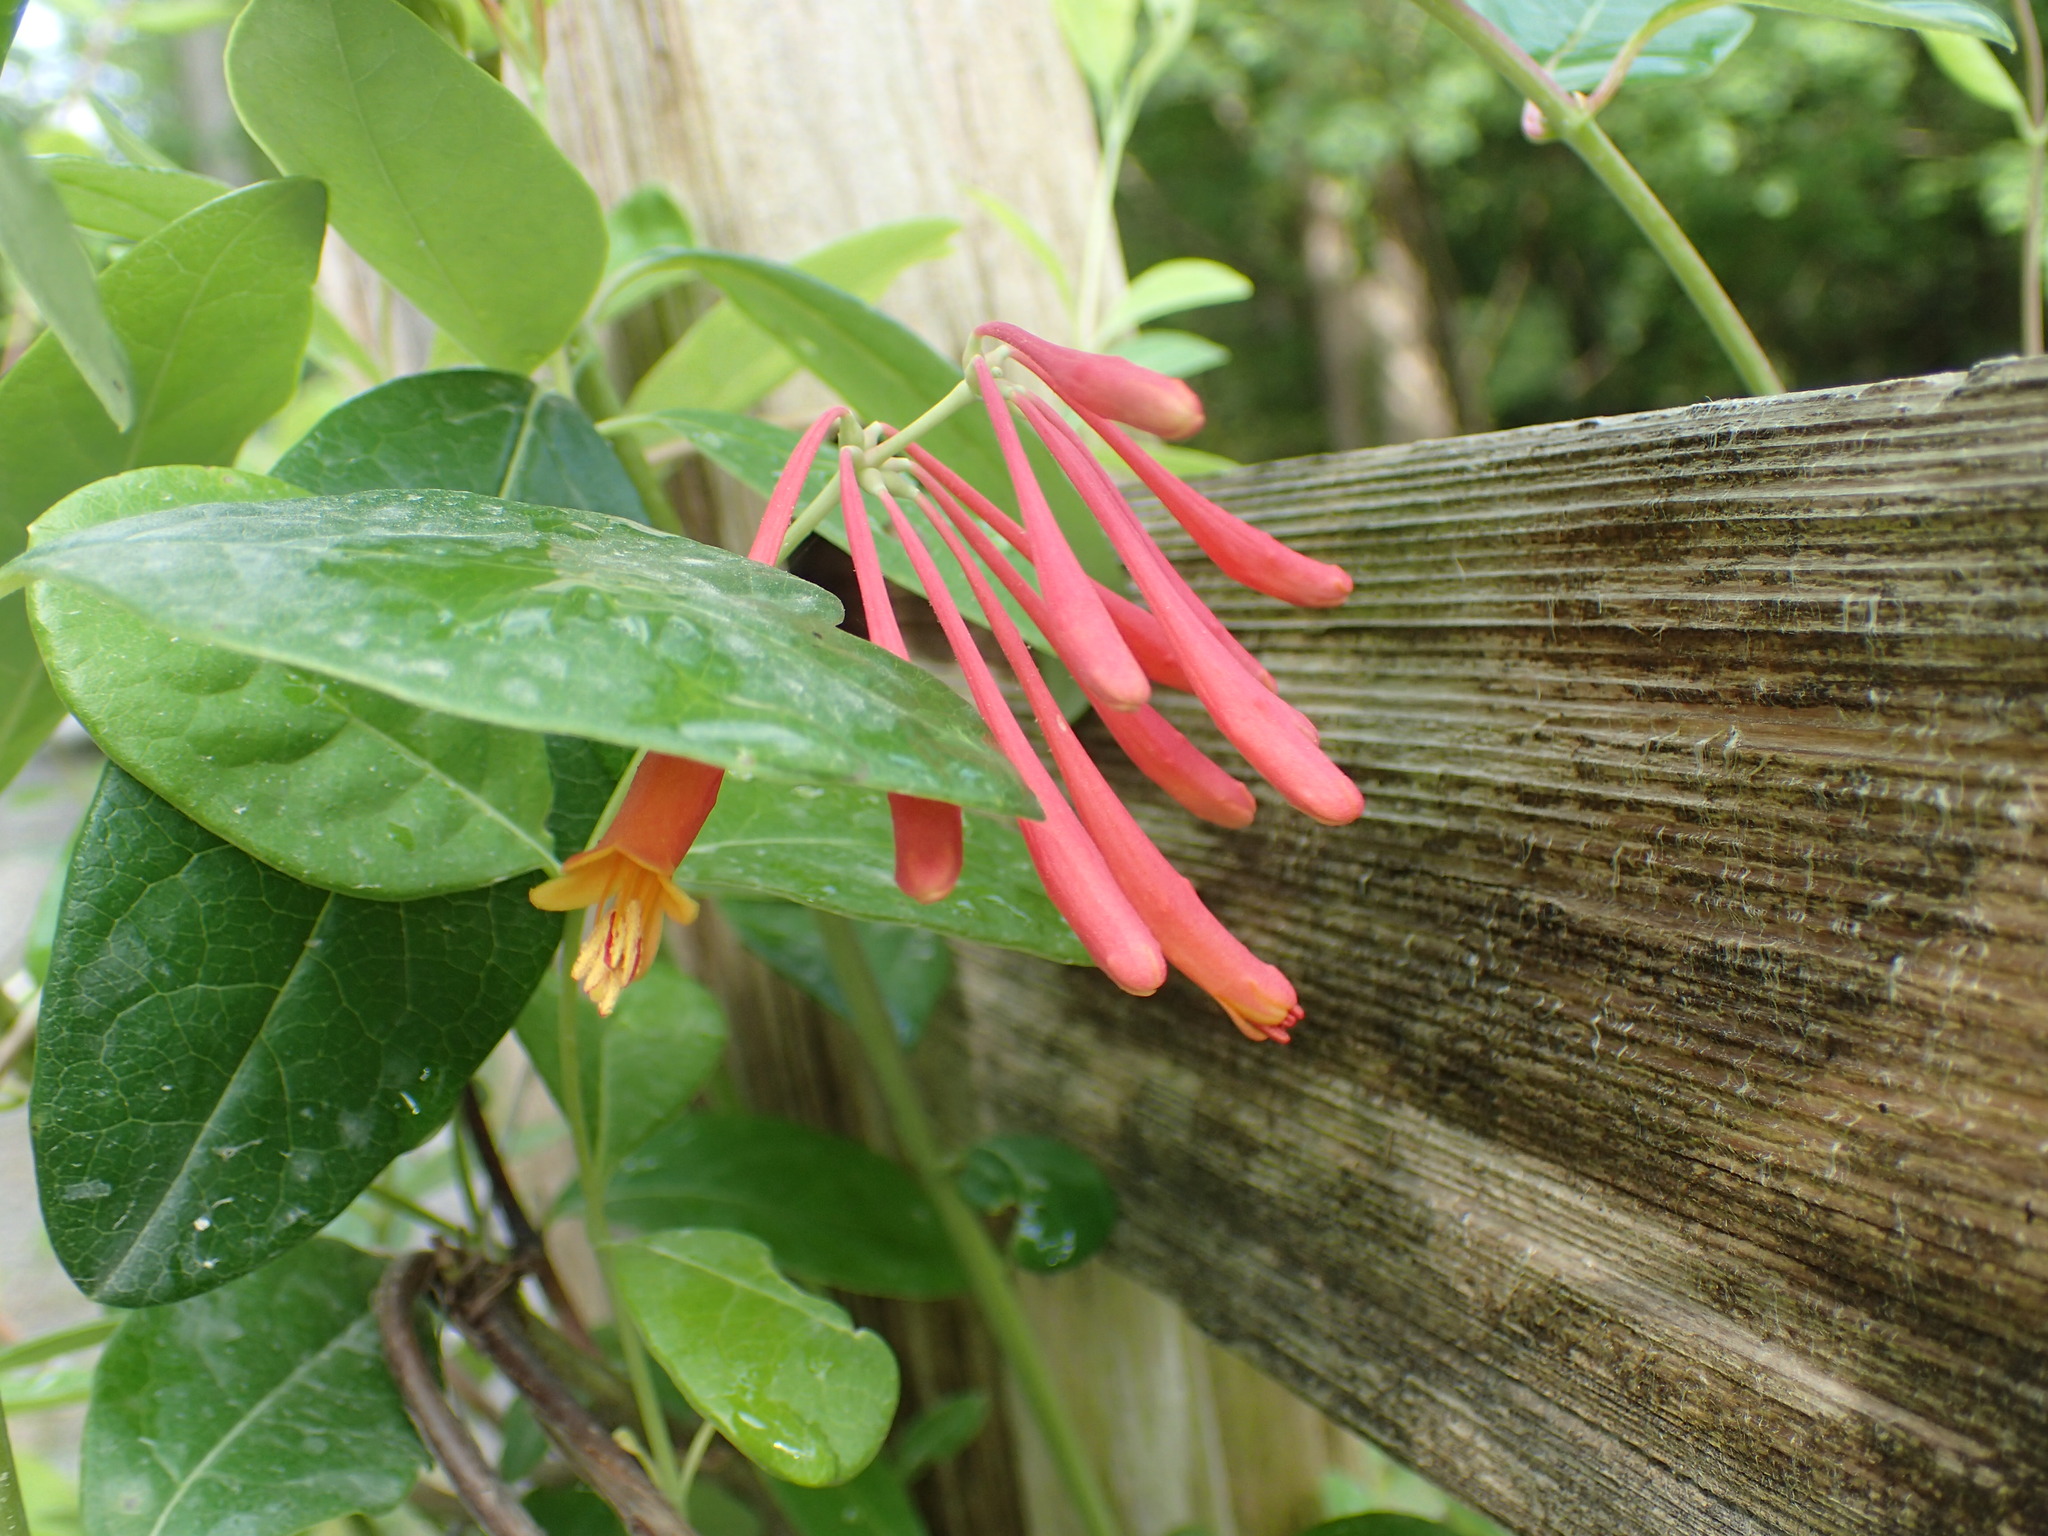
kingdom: Plantae
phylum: Tracheophyta
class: Magnoliopsida
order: Dipsacales
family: Caprifoliaceae
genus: Lonicera
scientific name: Lonicera sempervirens
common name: Coral honeysuckle
